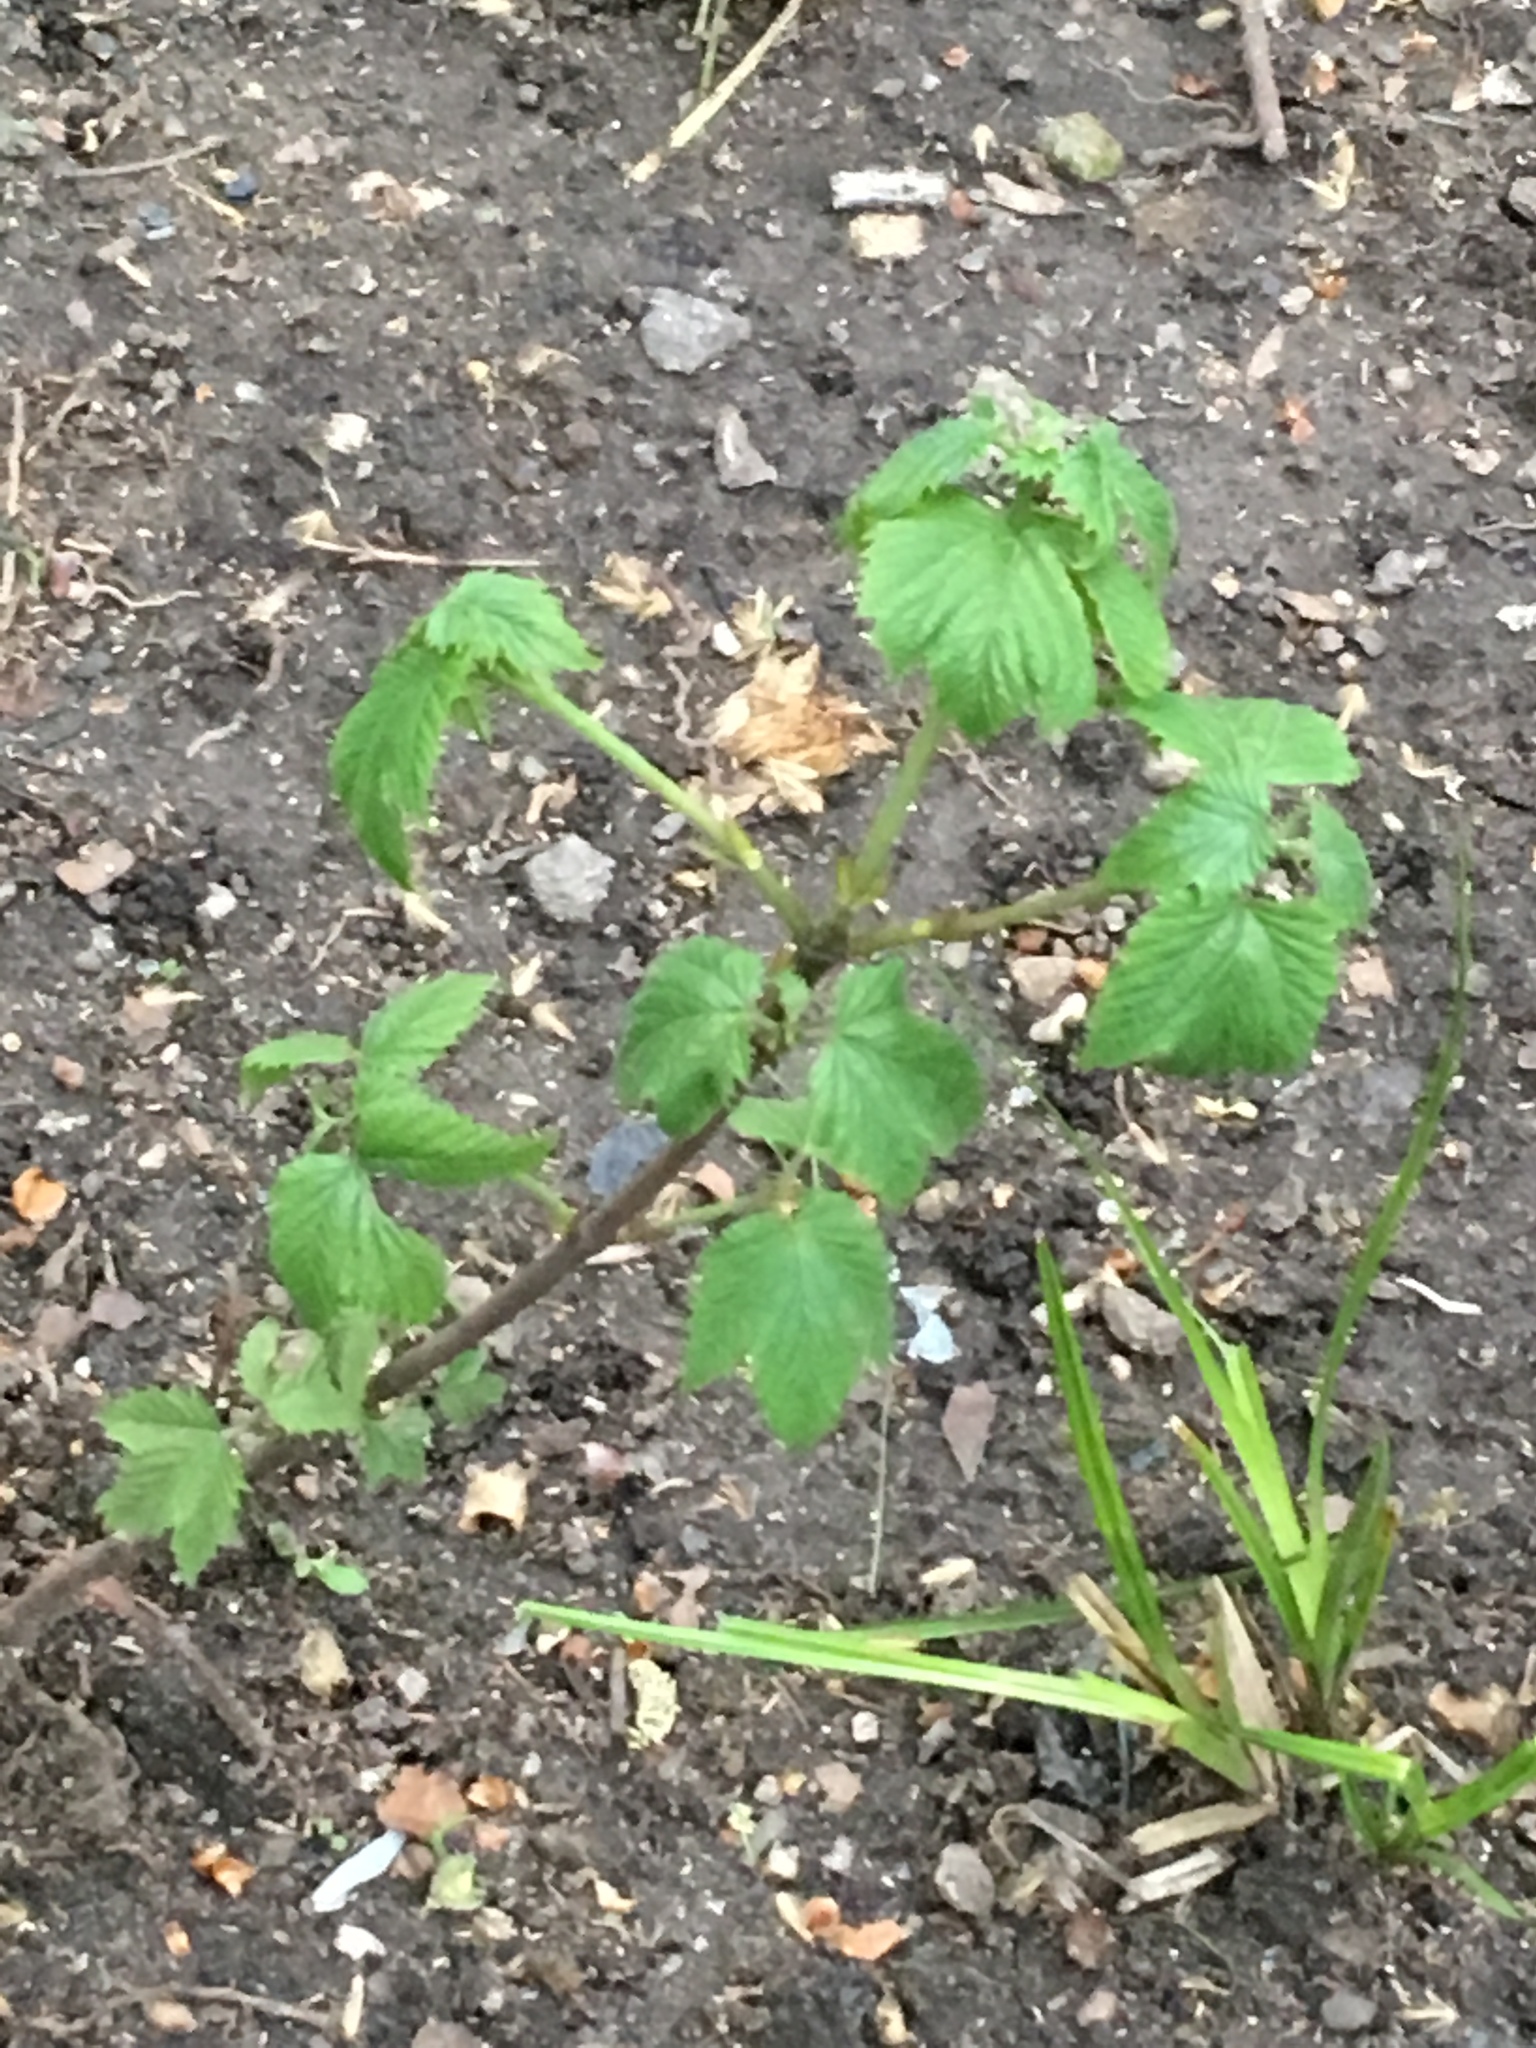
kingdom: Plantae
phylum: Tracheophyta
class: Magnoliopsida
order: Dipsacales
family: Viburnaceae
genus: Viburnum
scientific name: Viburnum acerifolium
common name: Dockmackie
